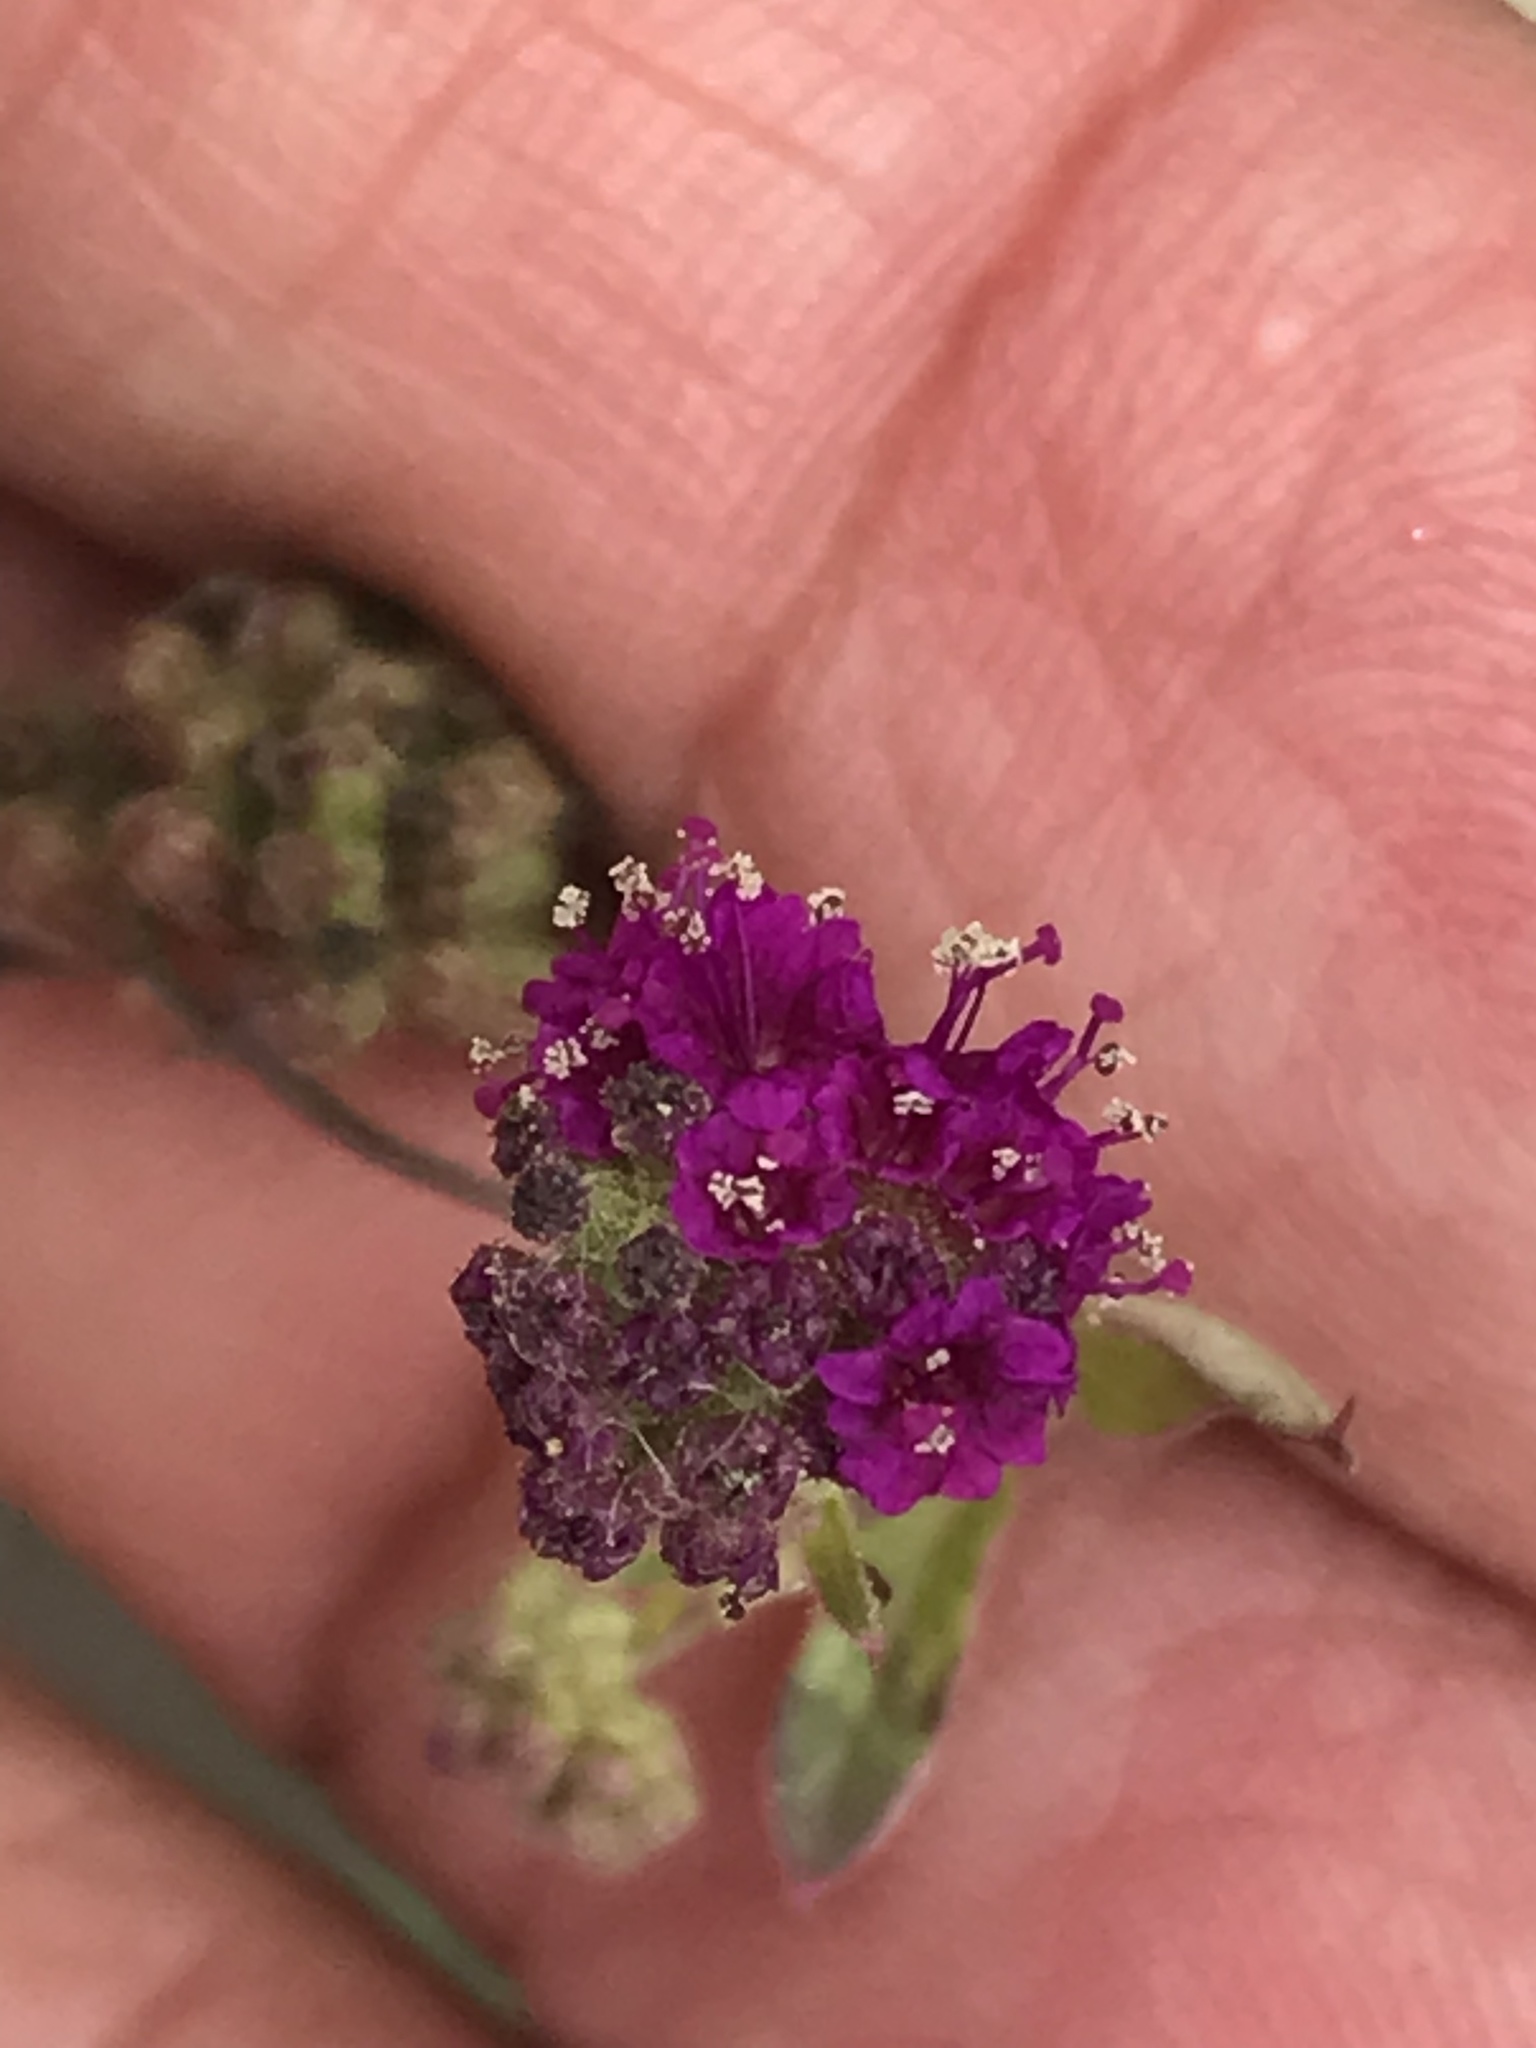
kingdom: Plantae
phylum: Tracheophyta
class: Magnoliopsida
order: Caryophyllales
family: Nyctaginaceae
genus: Boerhavia
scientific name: Boerhavia coccinea
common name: Scarlet spiderling
